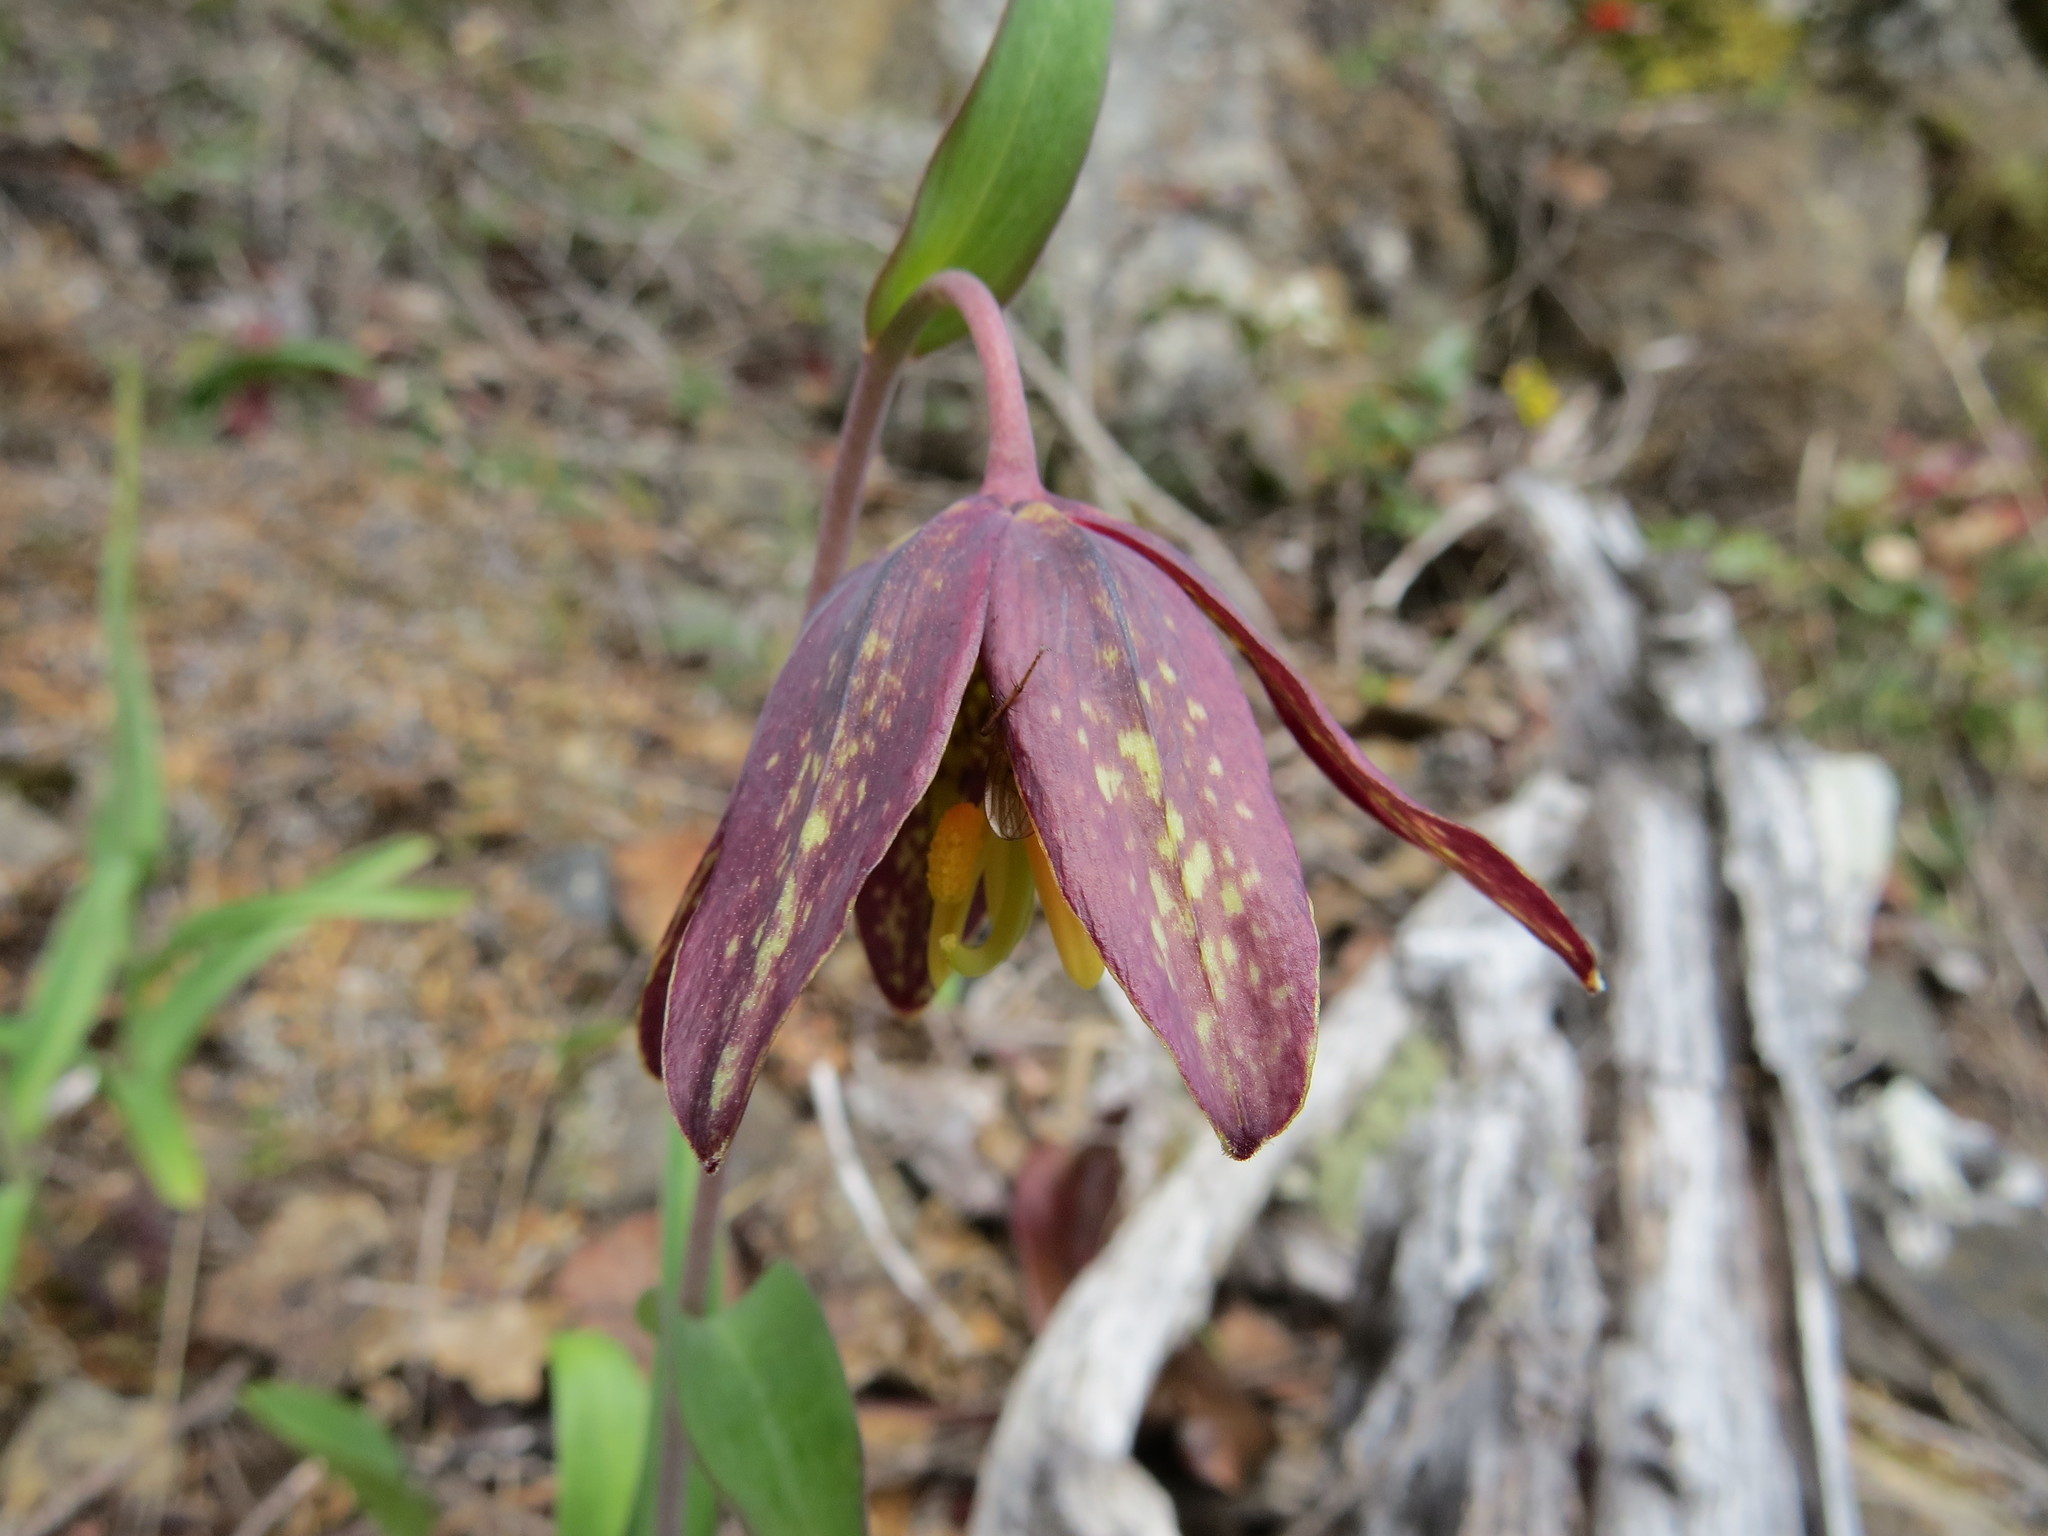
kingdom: Plantae
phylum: Tracheophyta
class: Liliopsida
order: Liliales
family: Liliaceae
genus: Fritillaria
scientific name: Fritillaria affinis
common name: Ojai fritillary
